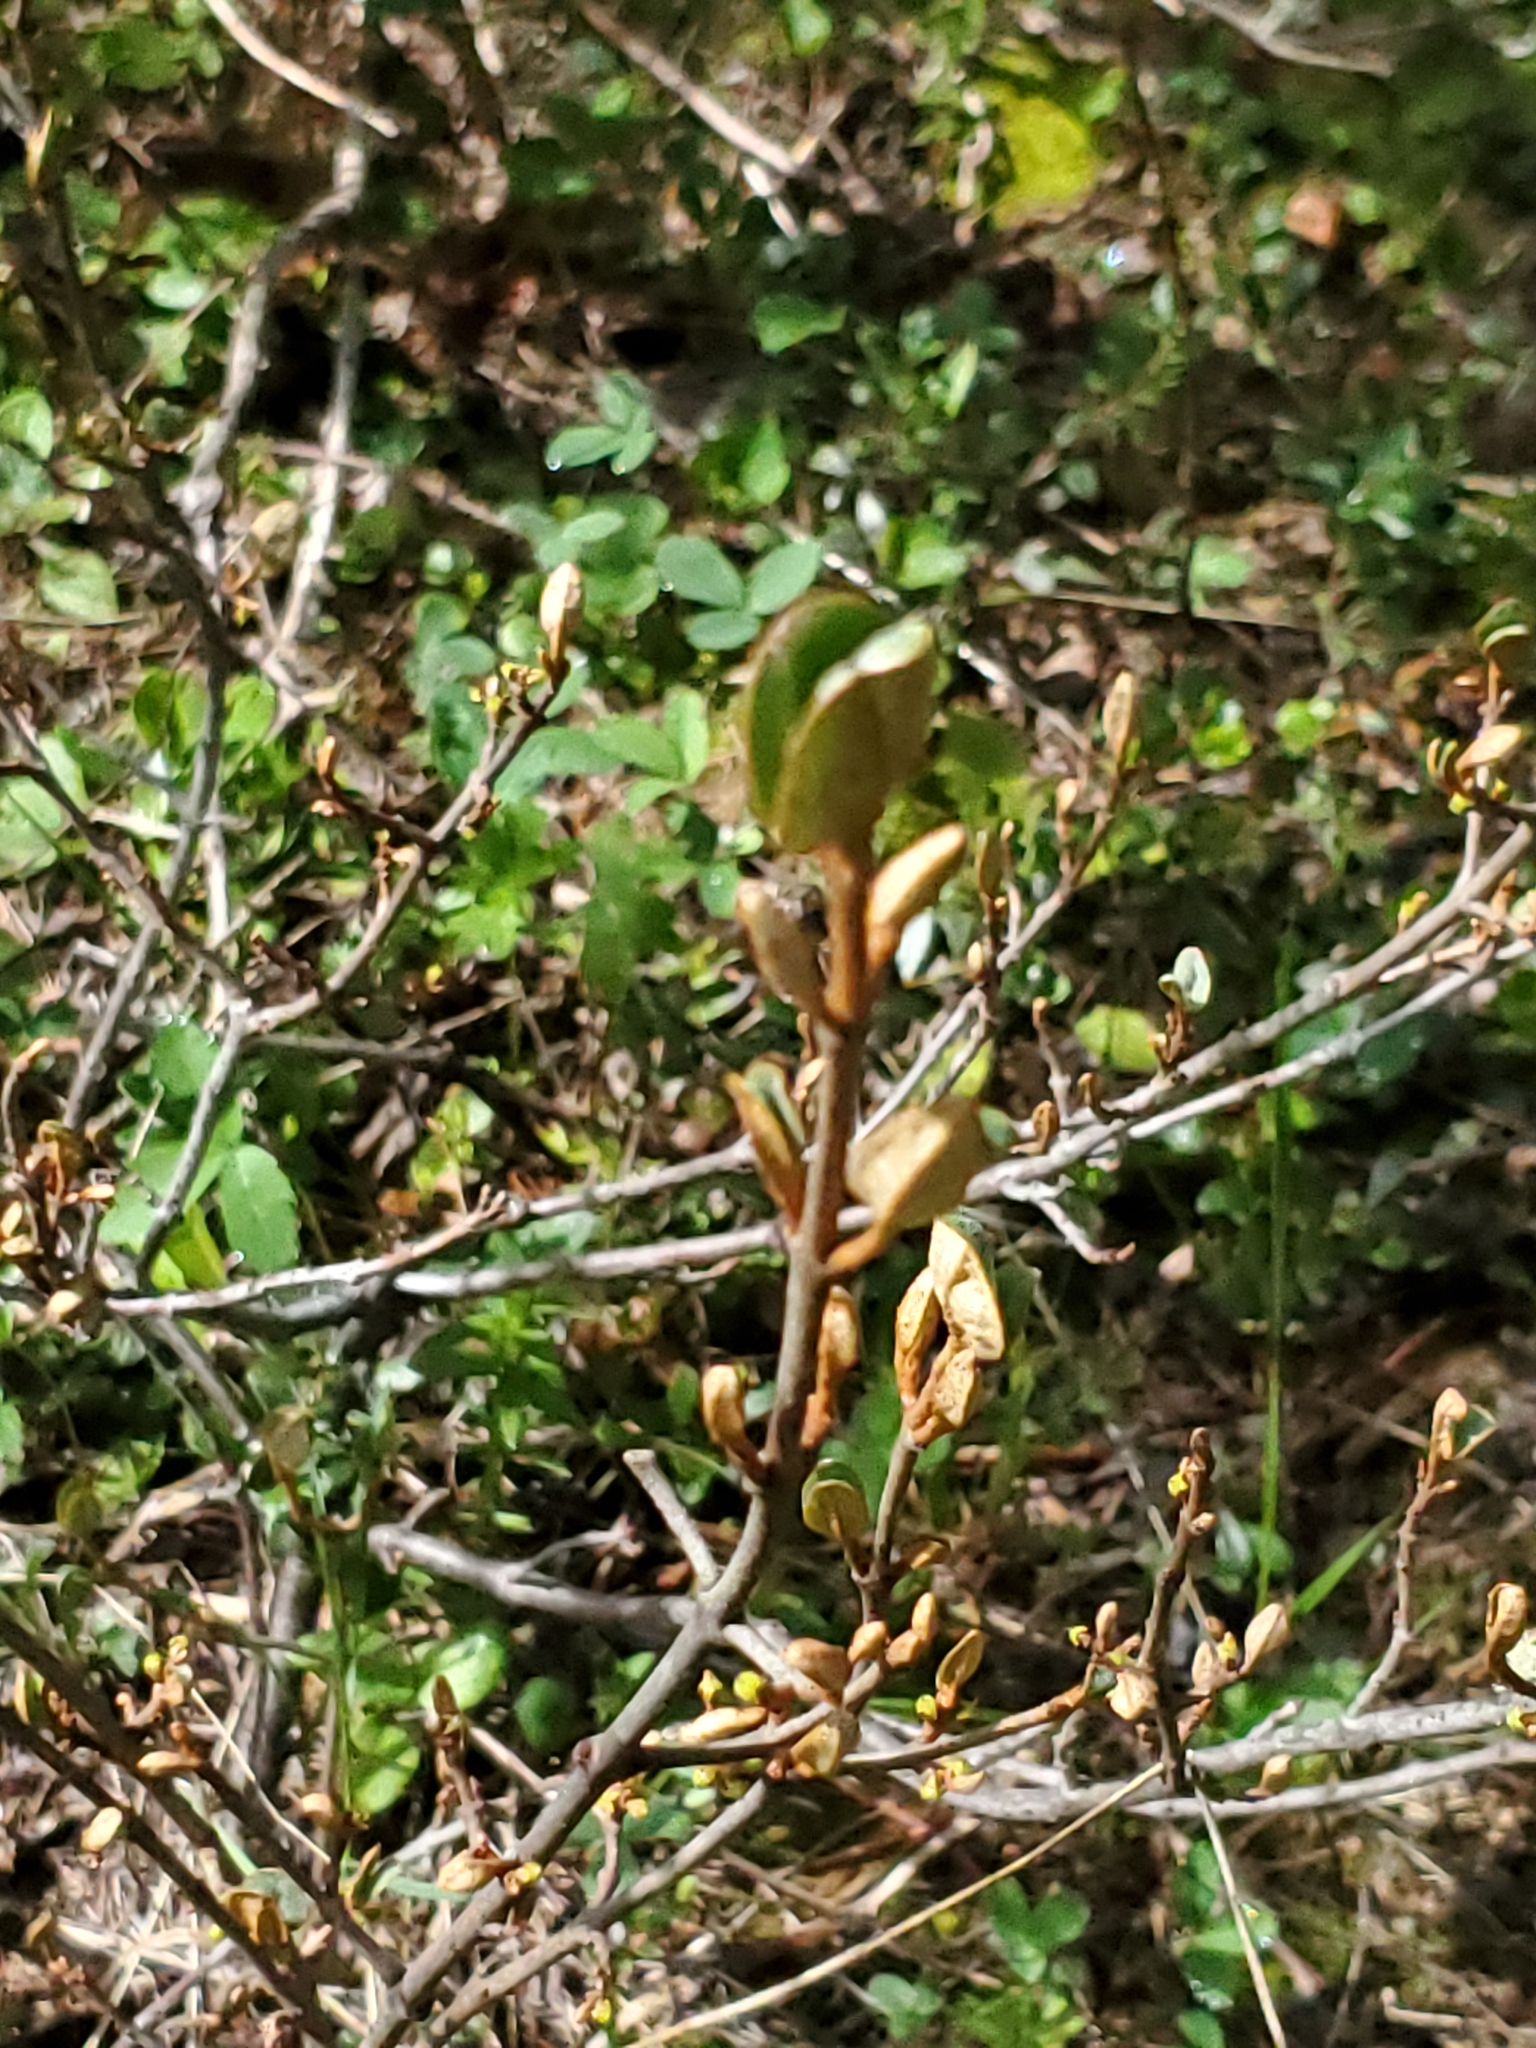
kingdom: Plantae
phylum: Tracheophyta
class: Magnoliopsida
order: Rosales
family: Elaeagnaceae
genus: Shepherdia
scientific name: Shepherdia canadensis
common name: Soapberry
